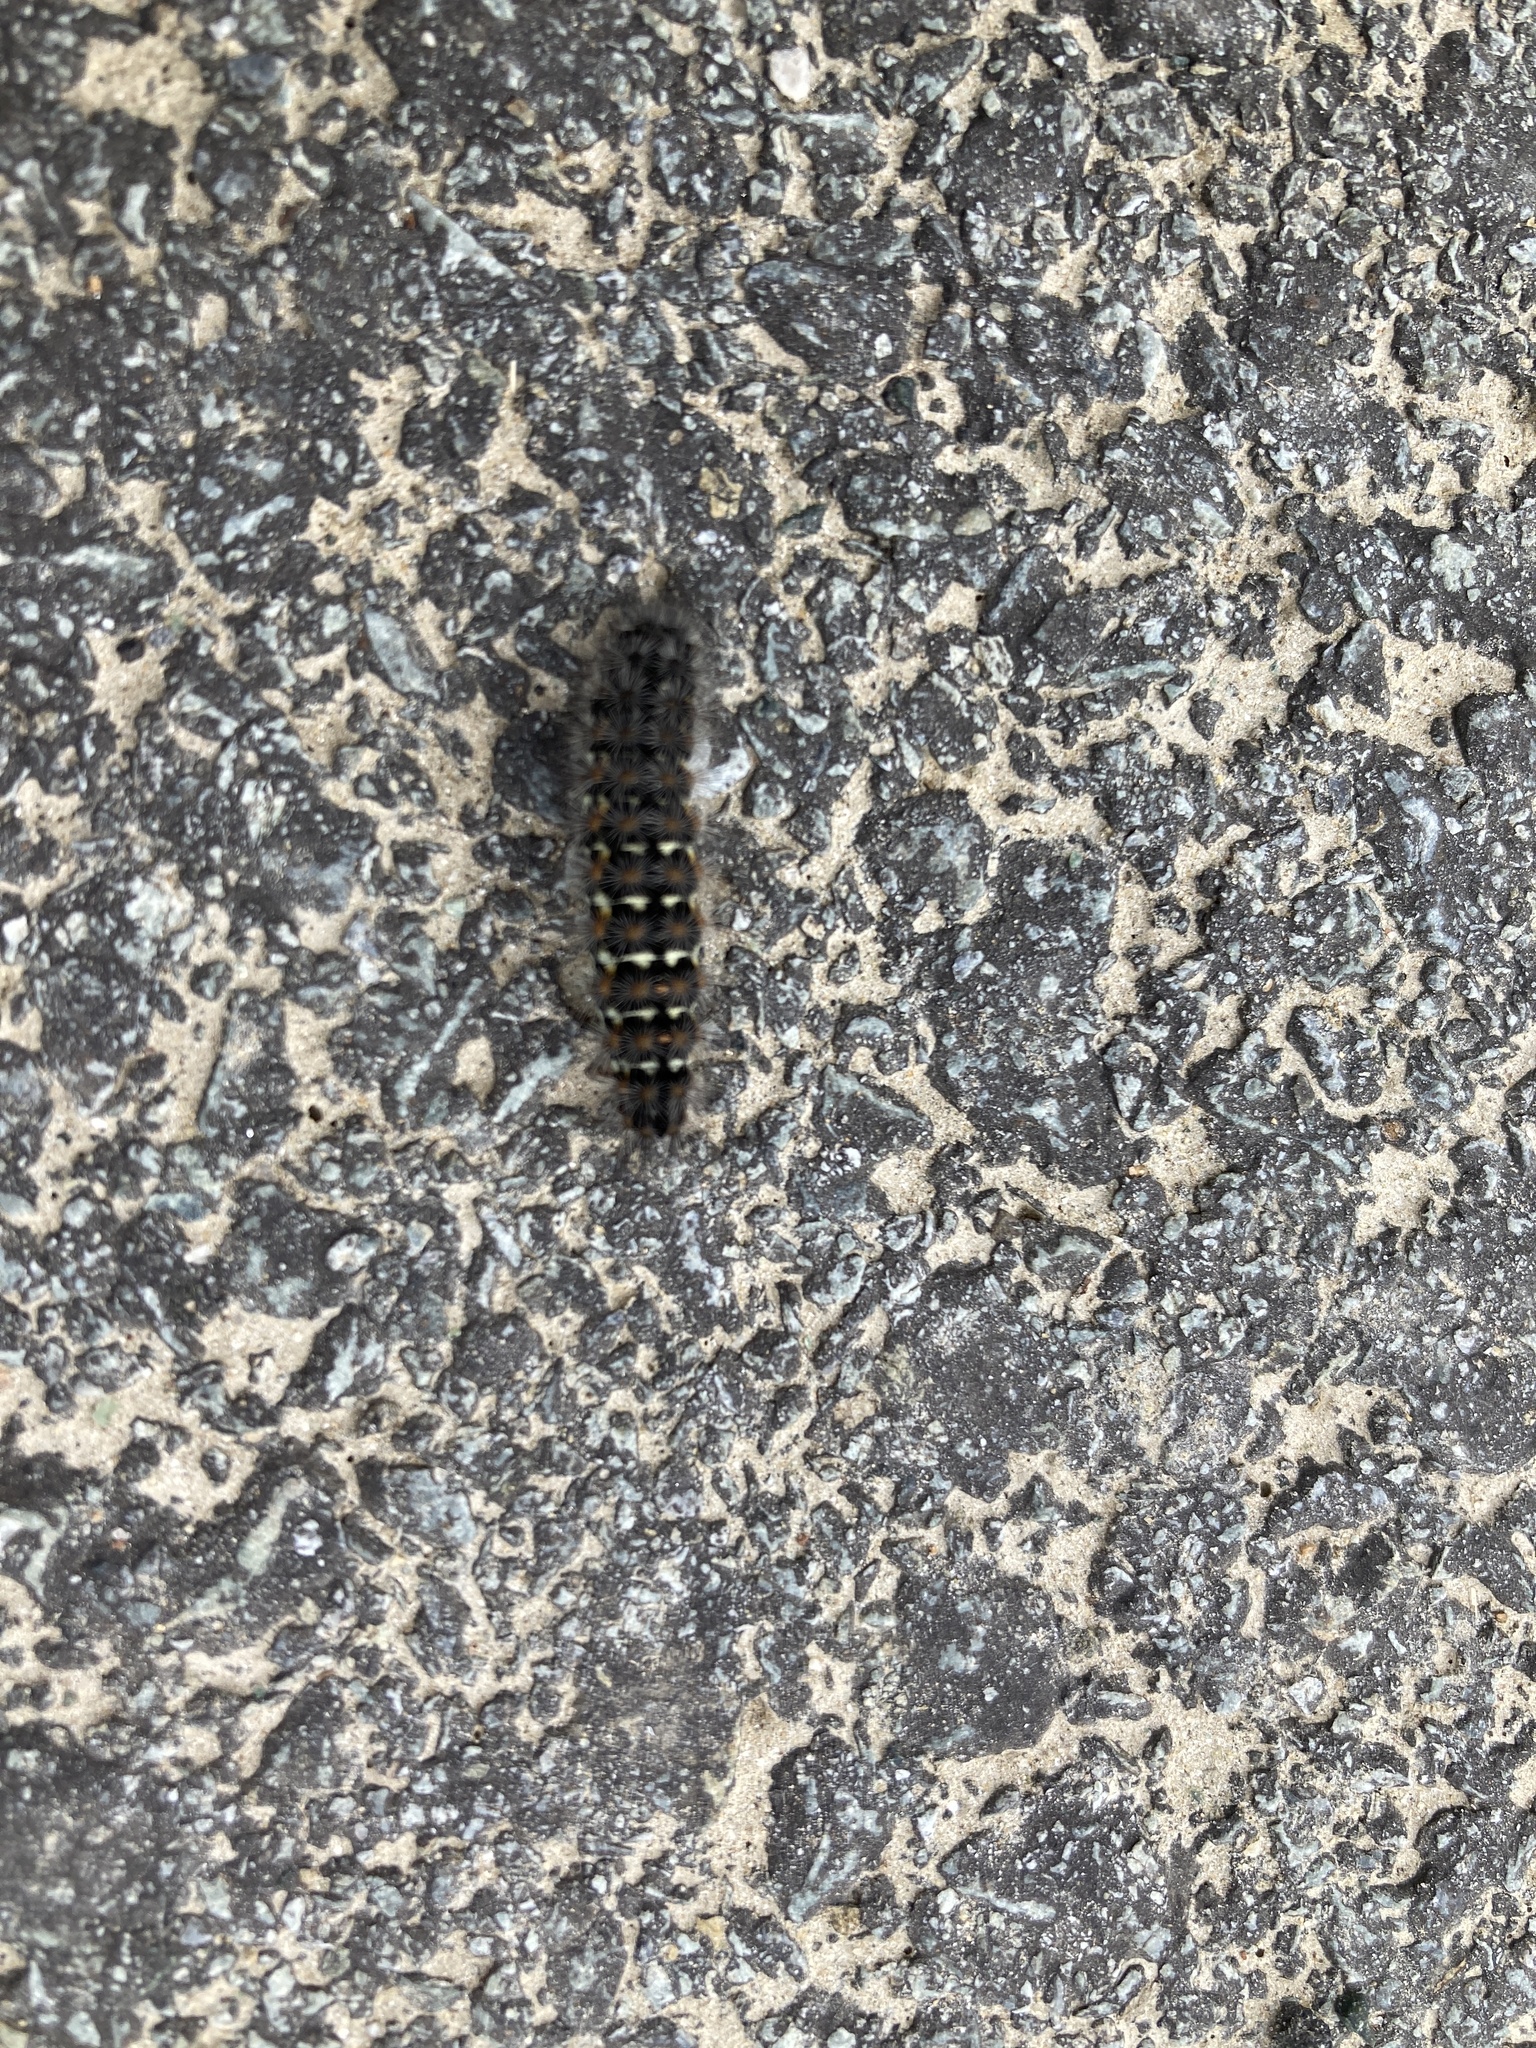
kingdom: Animalia
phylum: Arthropoda
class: Insecta
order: Lepidoptera
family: Erebidae
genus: Penthophera
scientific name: Penthophera morio
